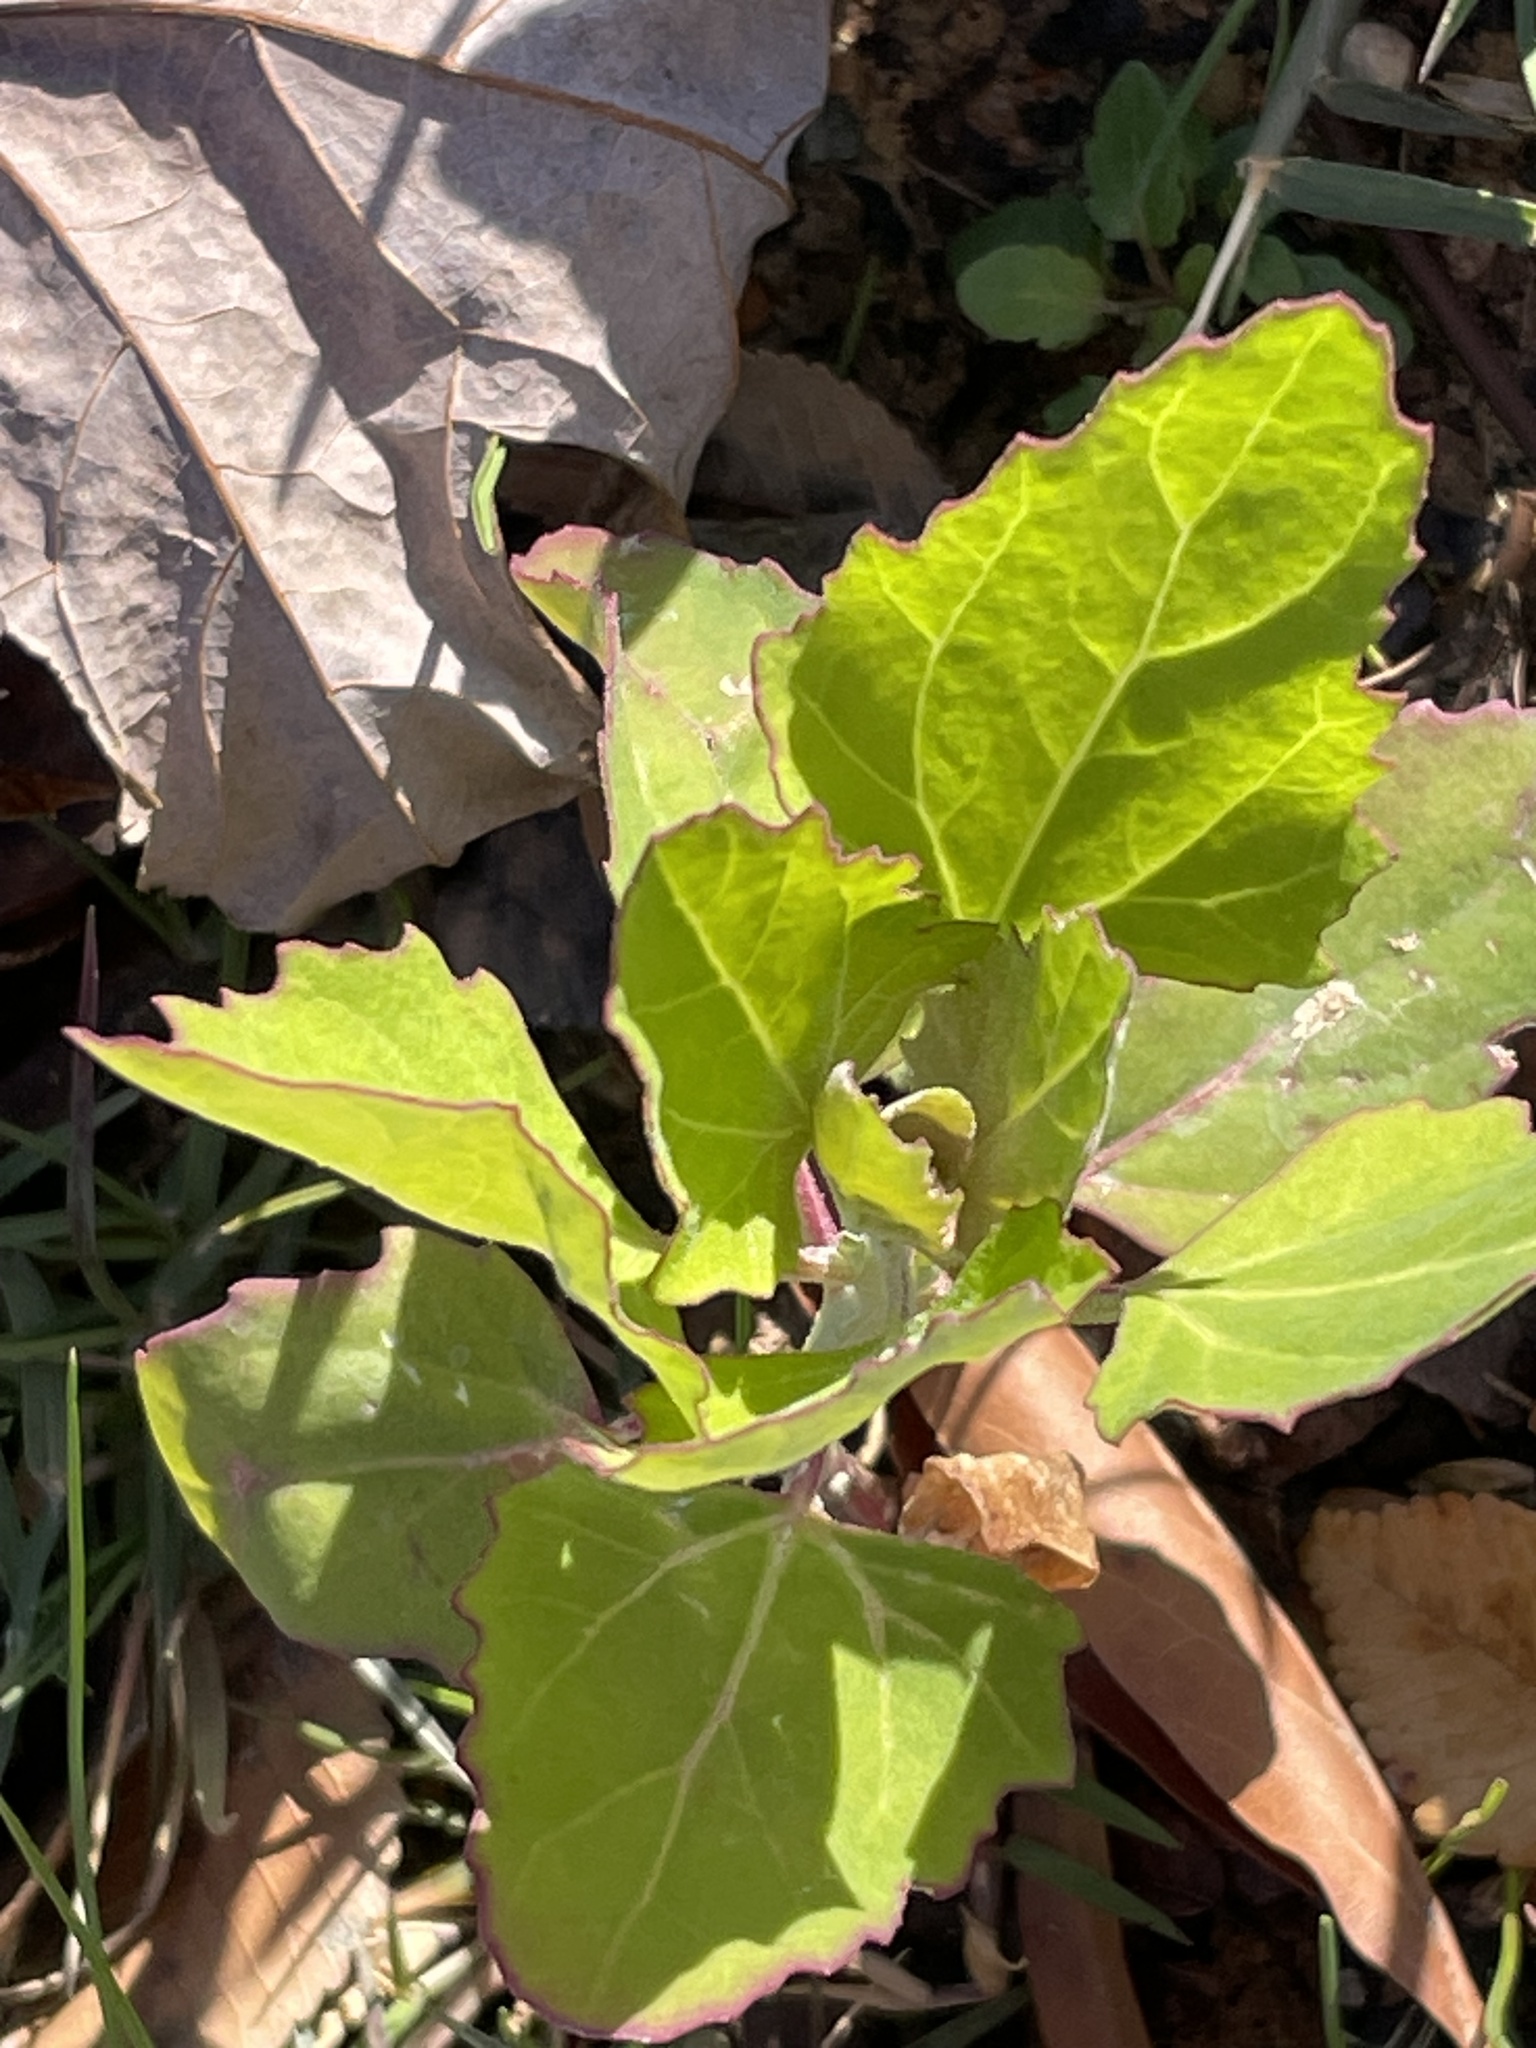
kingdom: Plantae
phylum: Tracheophyta
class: Magnoliopsida
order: Caryophyllales
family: Amaranthaceae
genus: Chenopodium
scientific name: Chenopodium album
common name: Fat-hen
